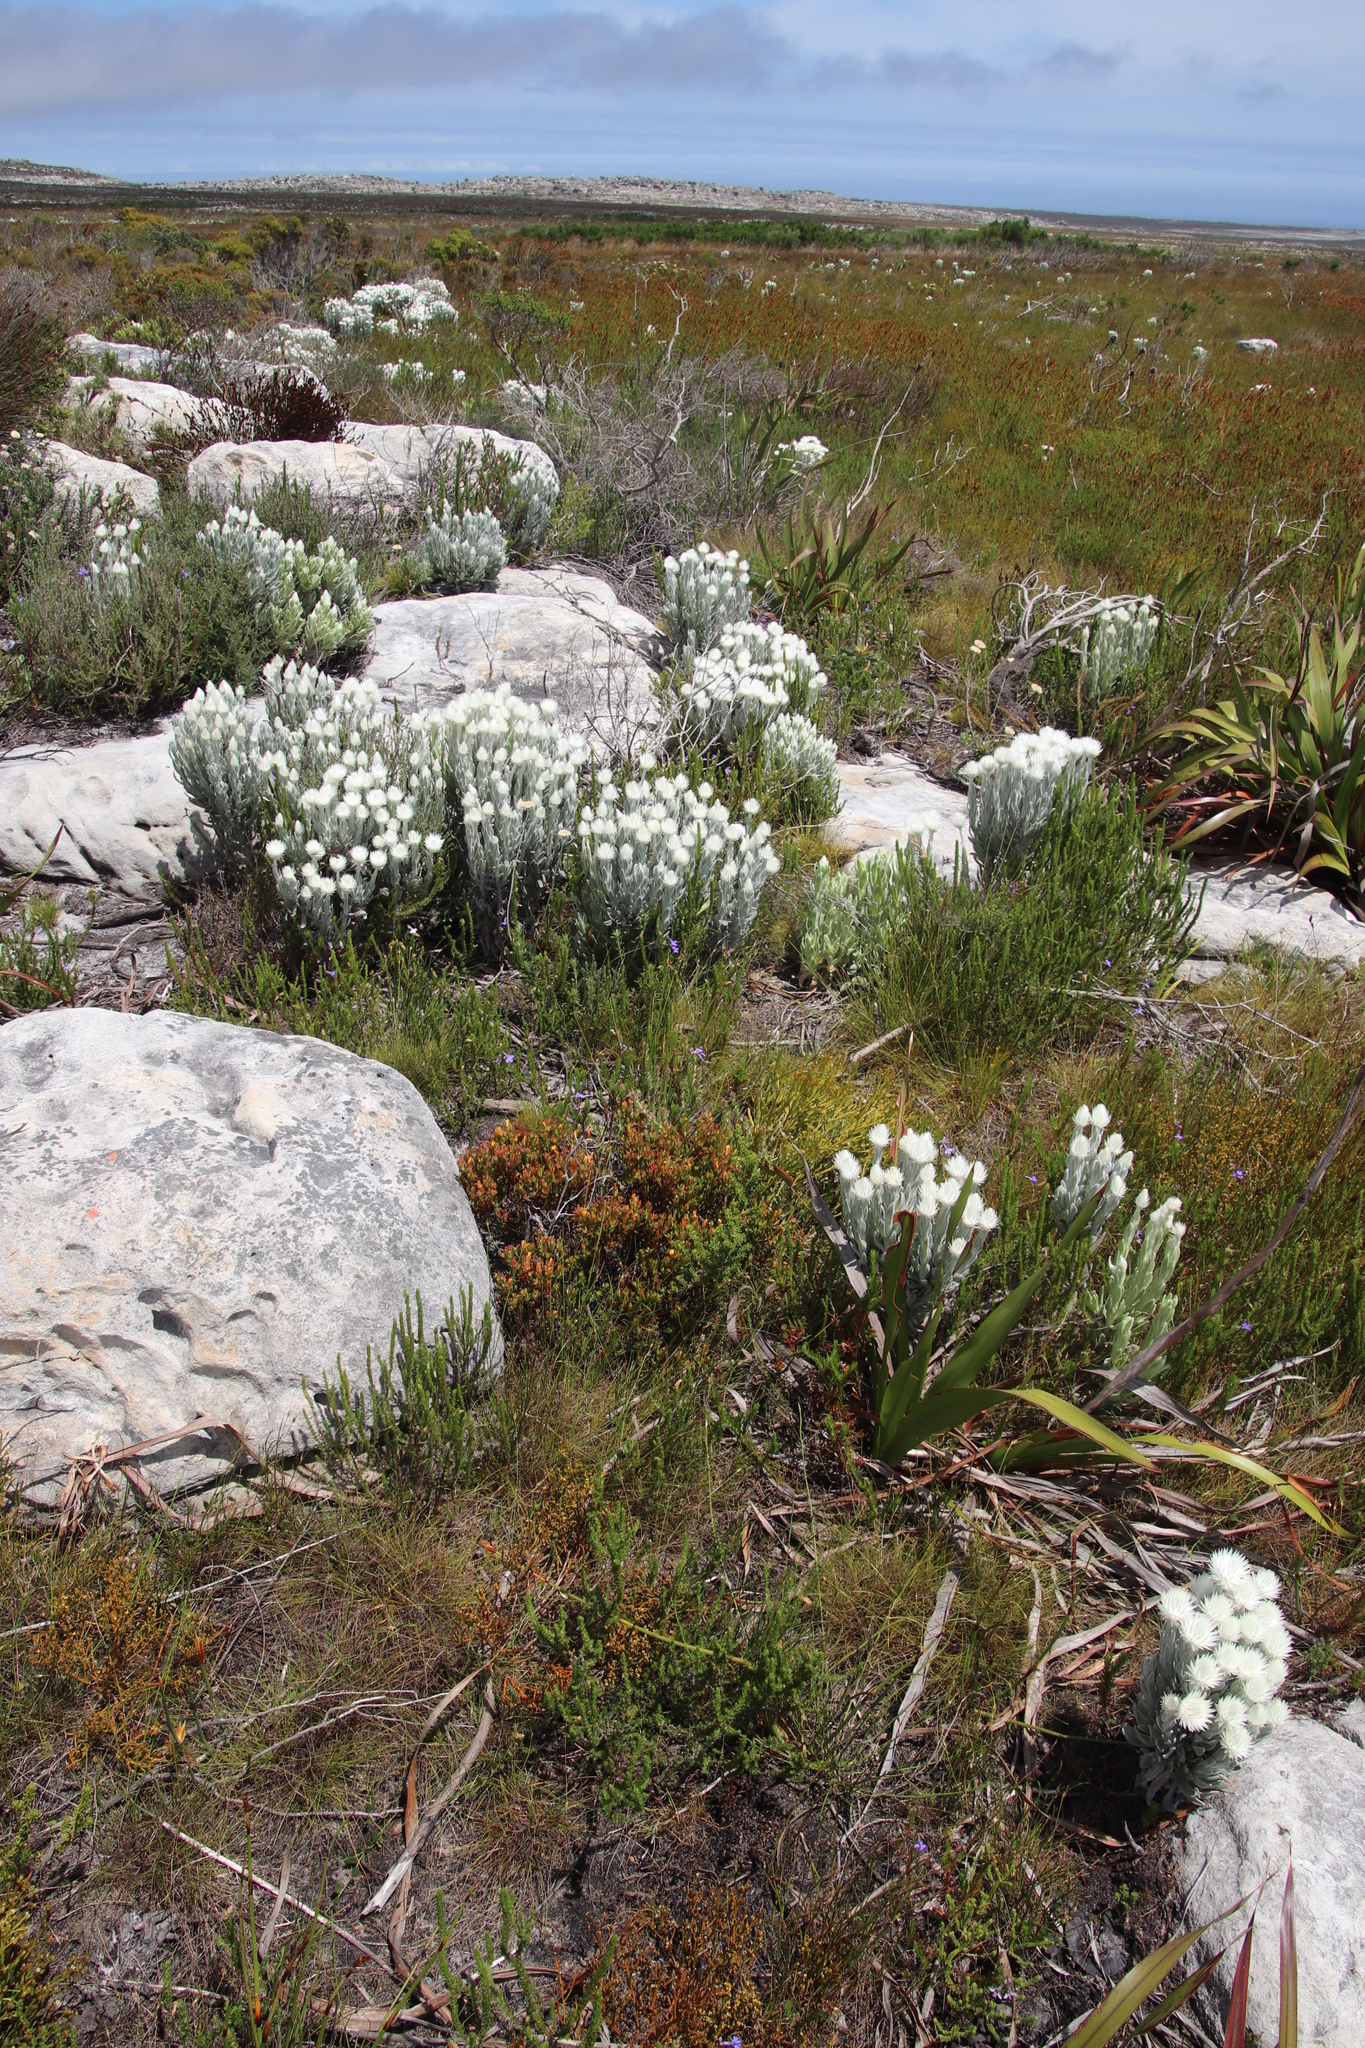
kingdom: Plantae
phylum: Tracheophyta
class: Magnoliopsida
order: Caryophyllales
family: Aizoaceae
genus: Lampranthus
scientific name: Lampranthus promontorii
